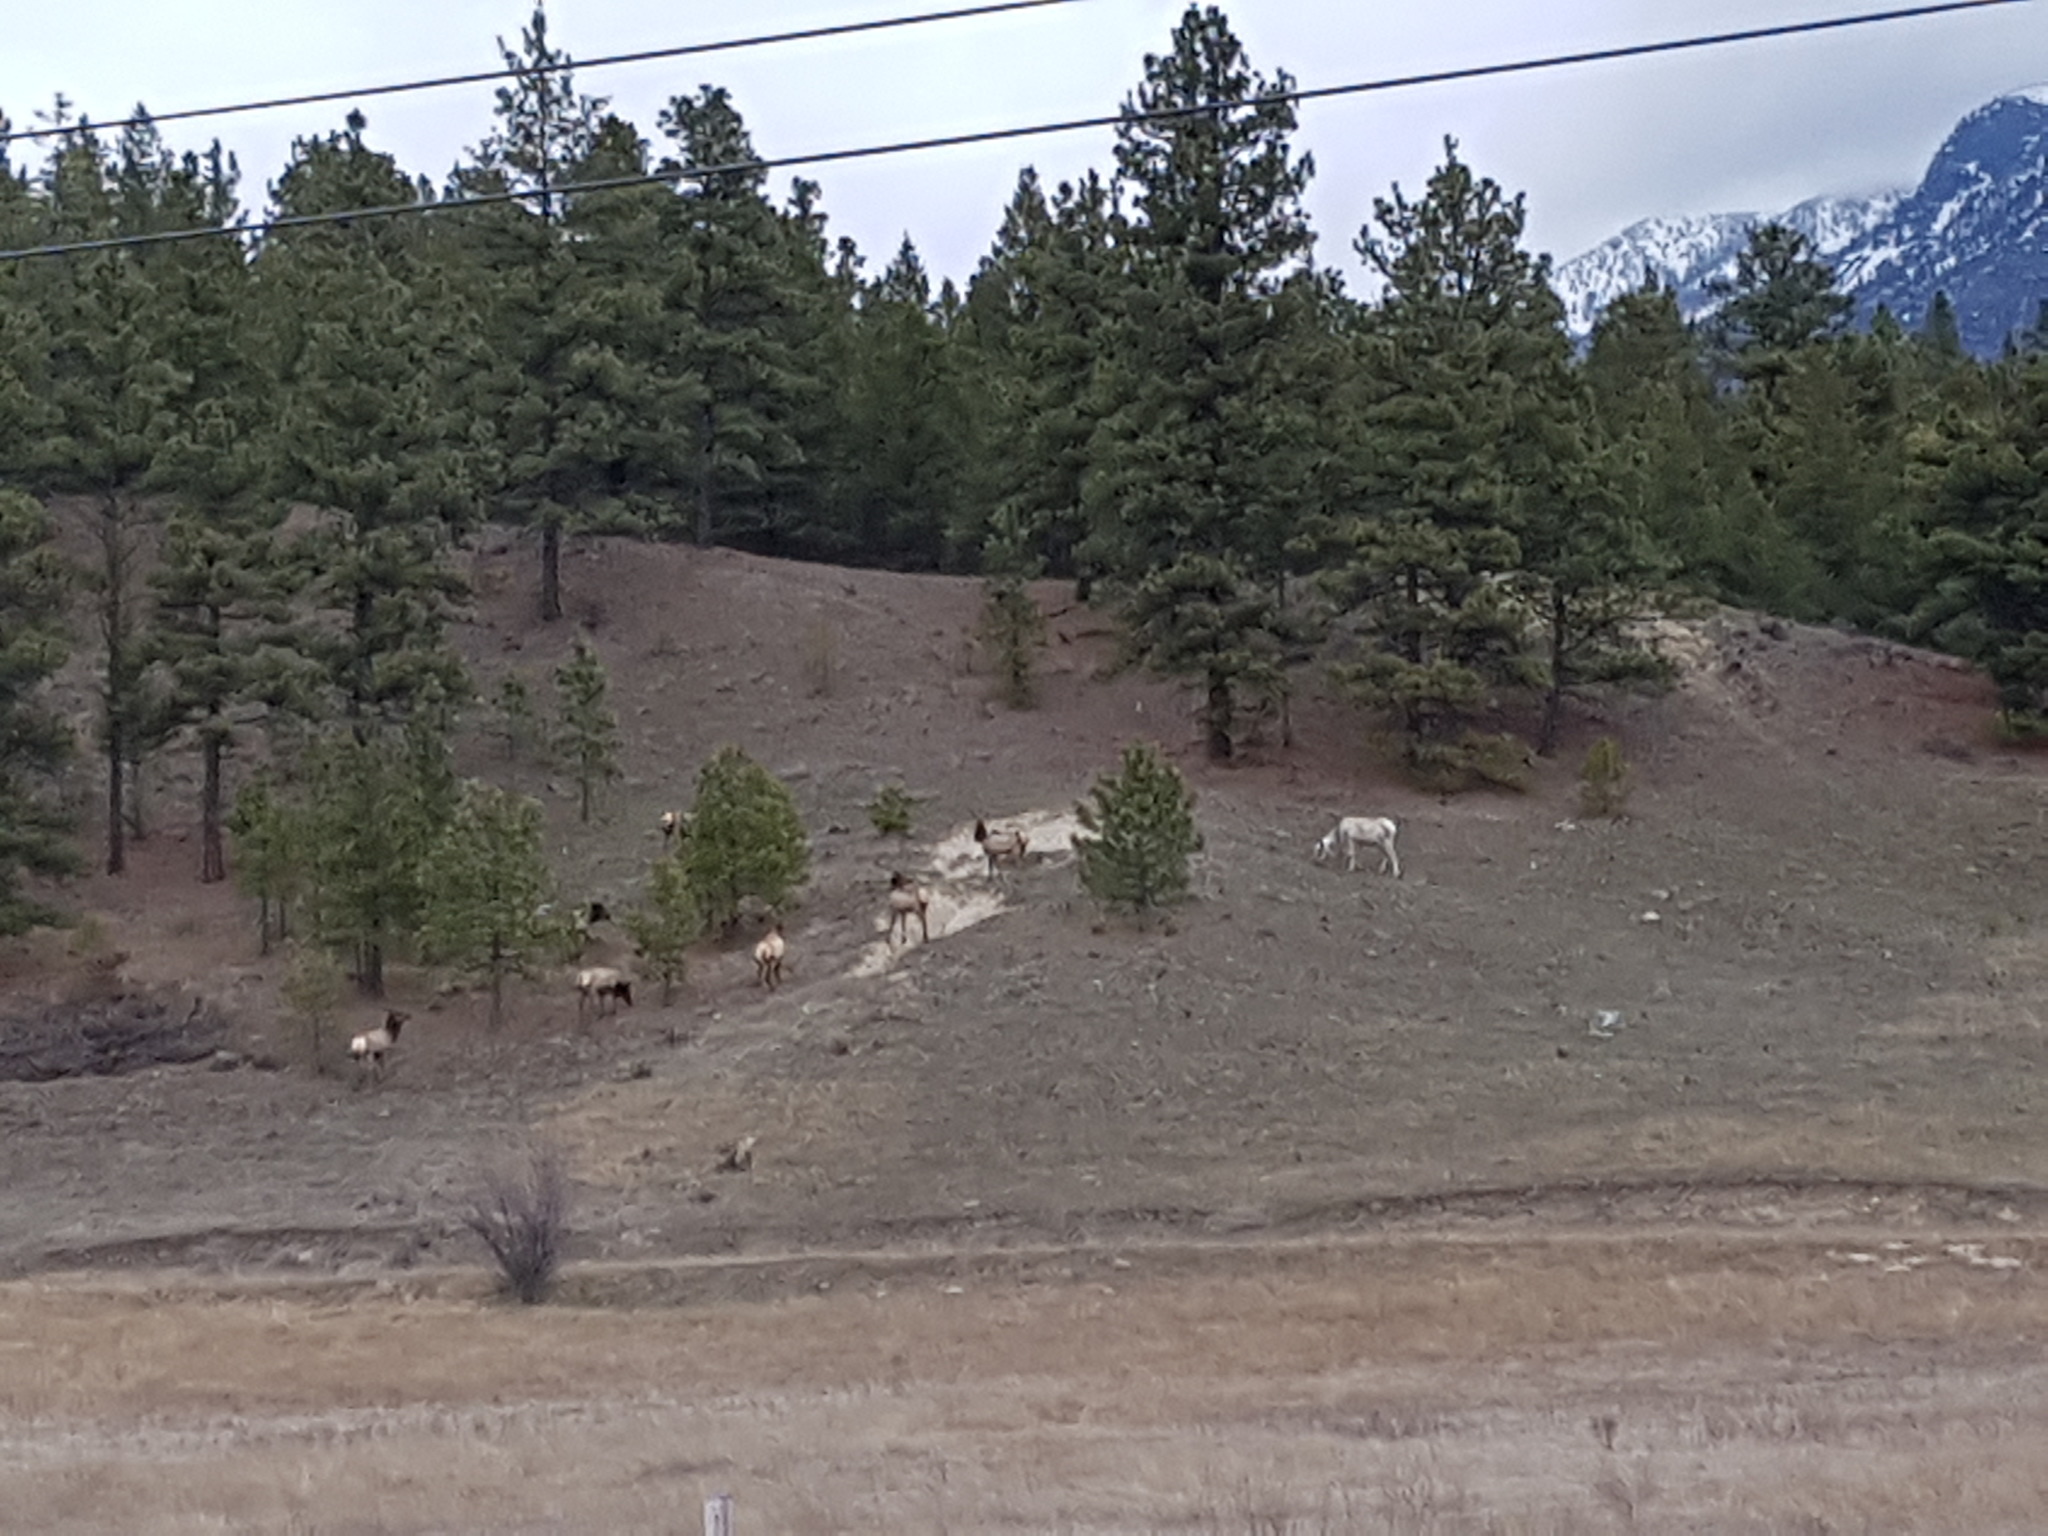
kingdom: Animalia
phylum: Chordata
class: Mammalia
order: Artiodactyla
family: Cervidae
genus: Cervus
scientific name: Cervus elaphus
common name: Red deer
